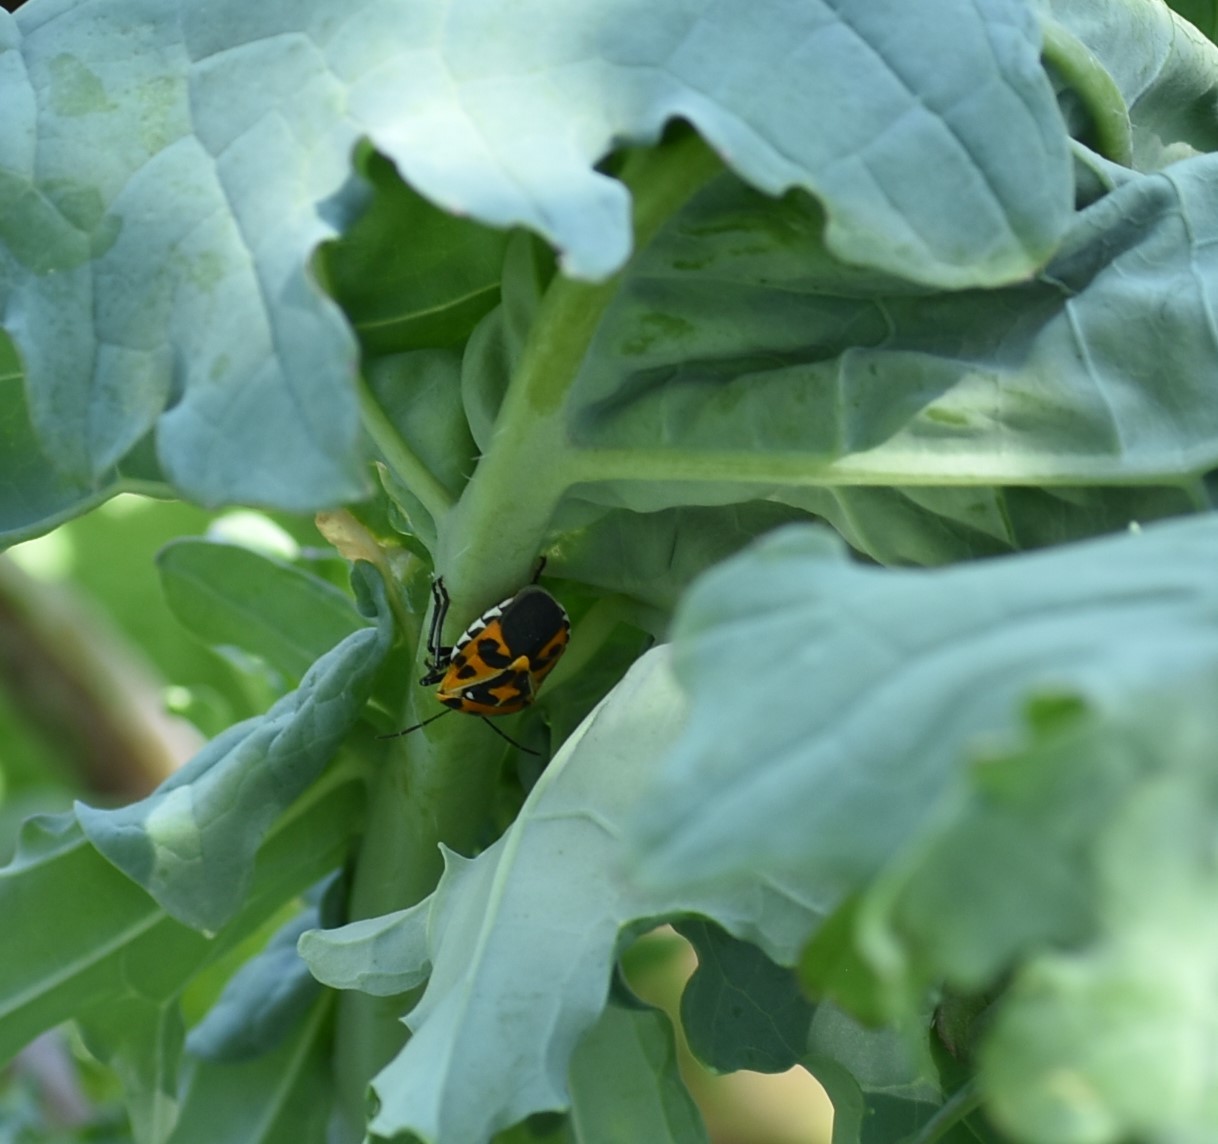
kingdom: Animalia
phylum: Arthropoda
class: Insecta
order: Hemiptera
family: Pentatomidae
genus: Murgantia
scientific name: Murgantia histrionica
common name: Harlequin bug
